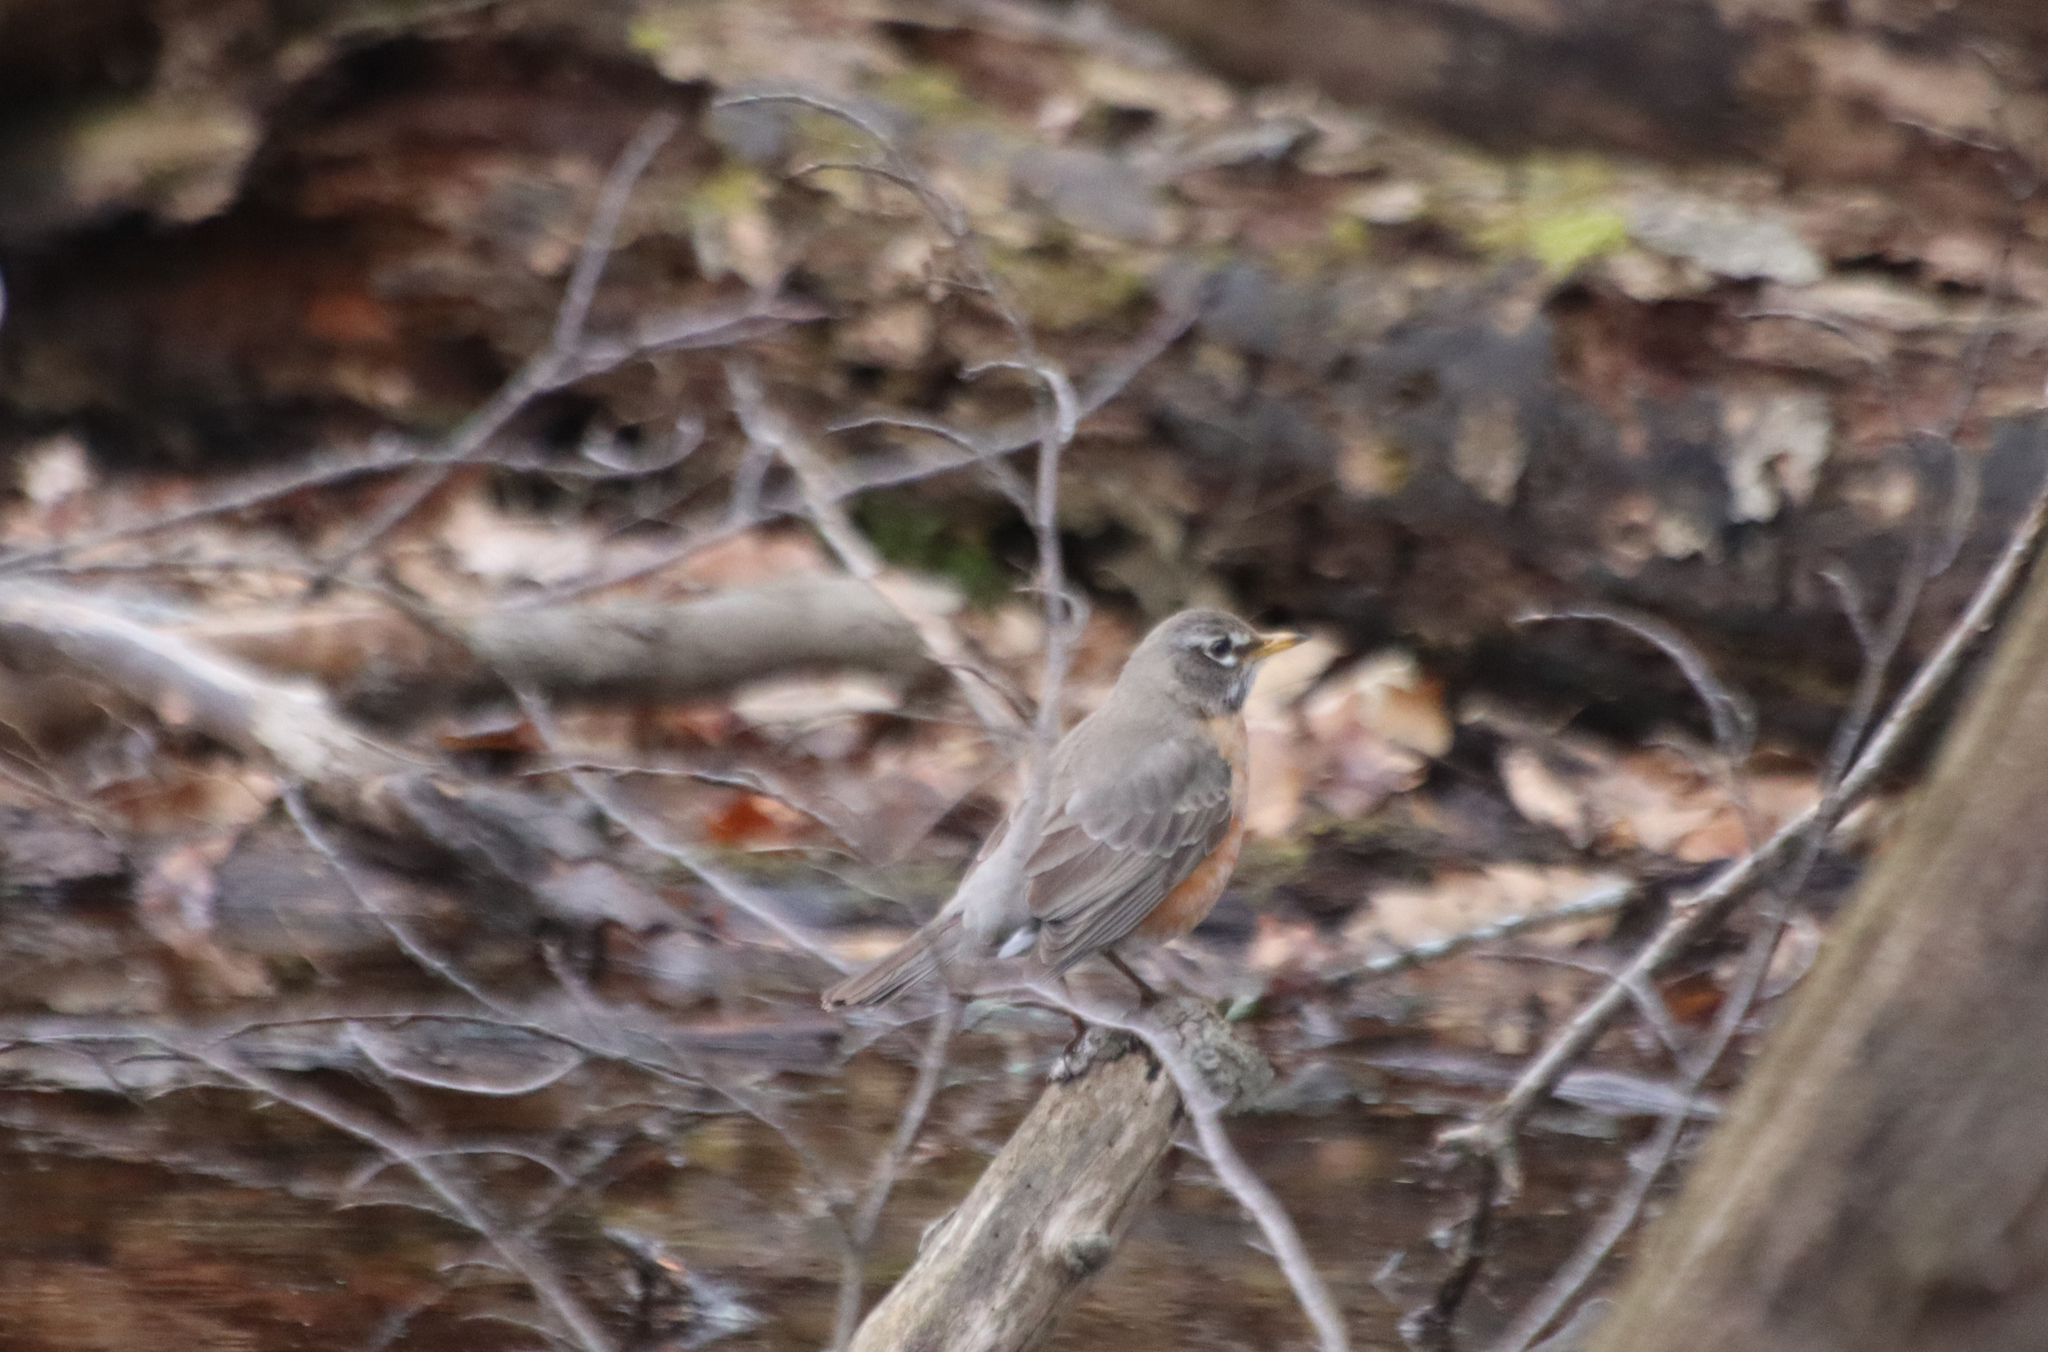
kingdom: Animalia
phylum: Chordata
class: Aves
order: Passeriformes
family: Turdidae
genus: Turdus
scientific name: Turdus migratorius
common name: American robin
